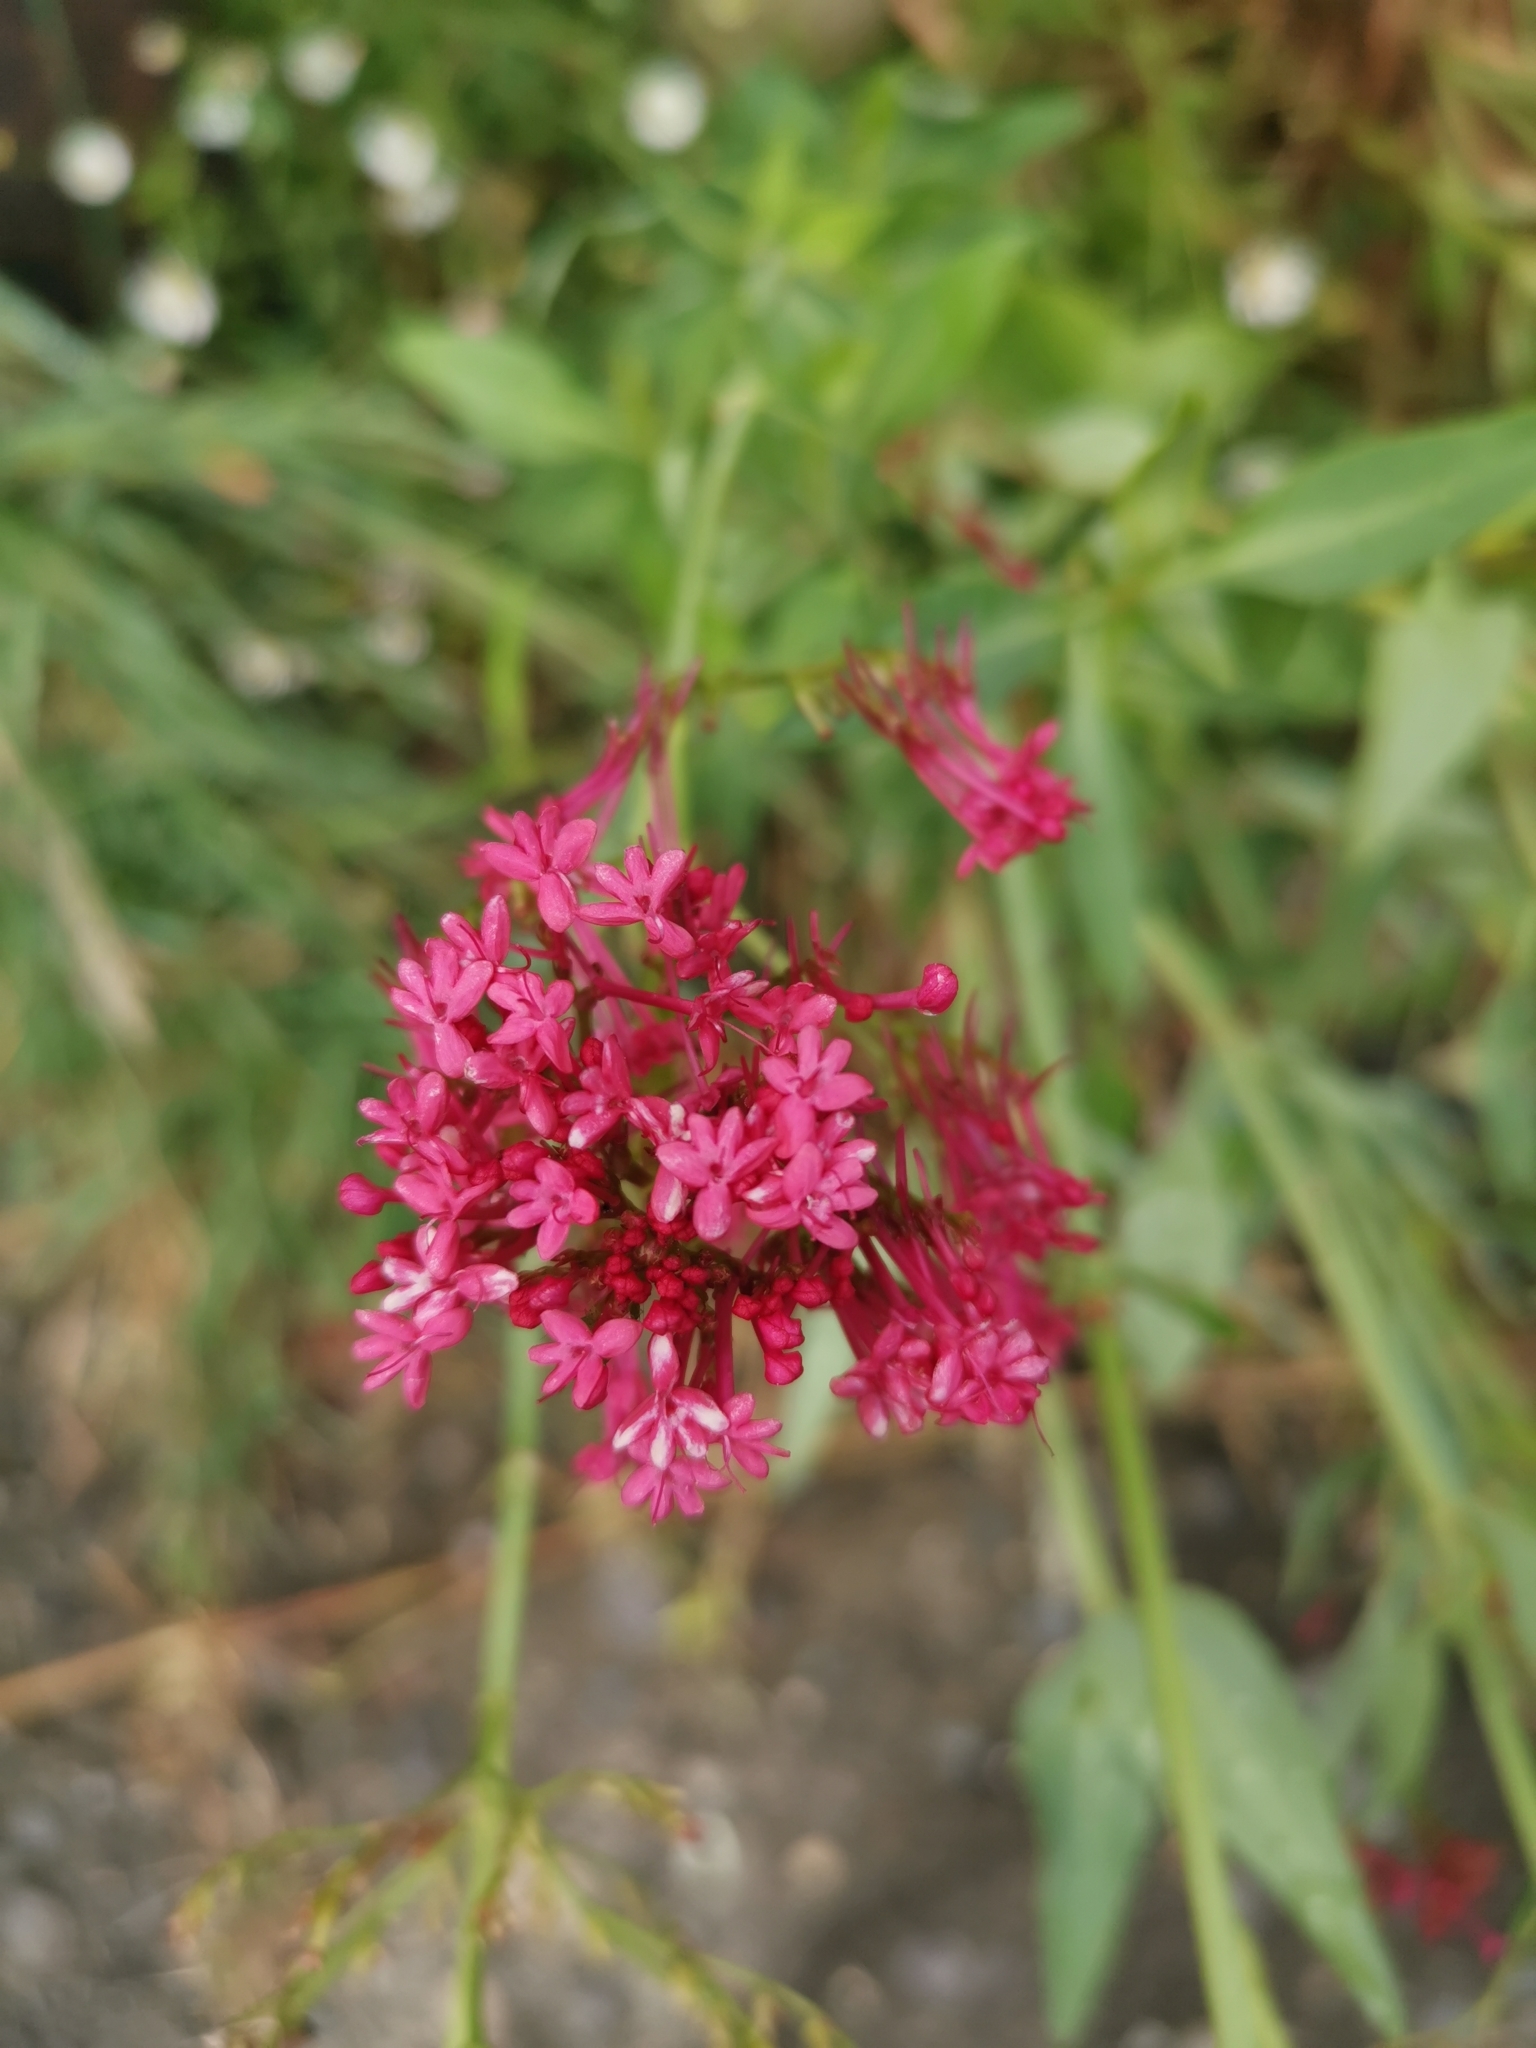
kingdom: Plantae
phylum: Tracheophyta
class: Magnoliopsida
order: Dipsacales
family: Caprifoliaceae
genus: Centranthus
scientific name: Centranthus ruber
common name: Red valerian
